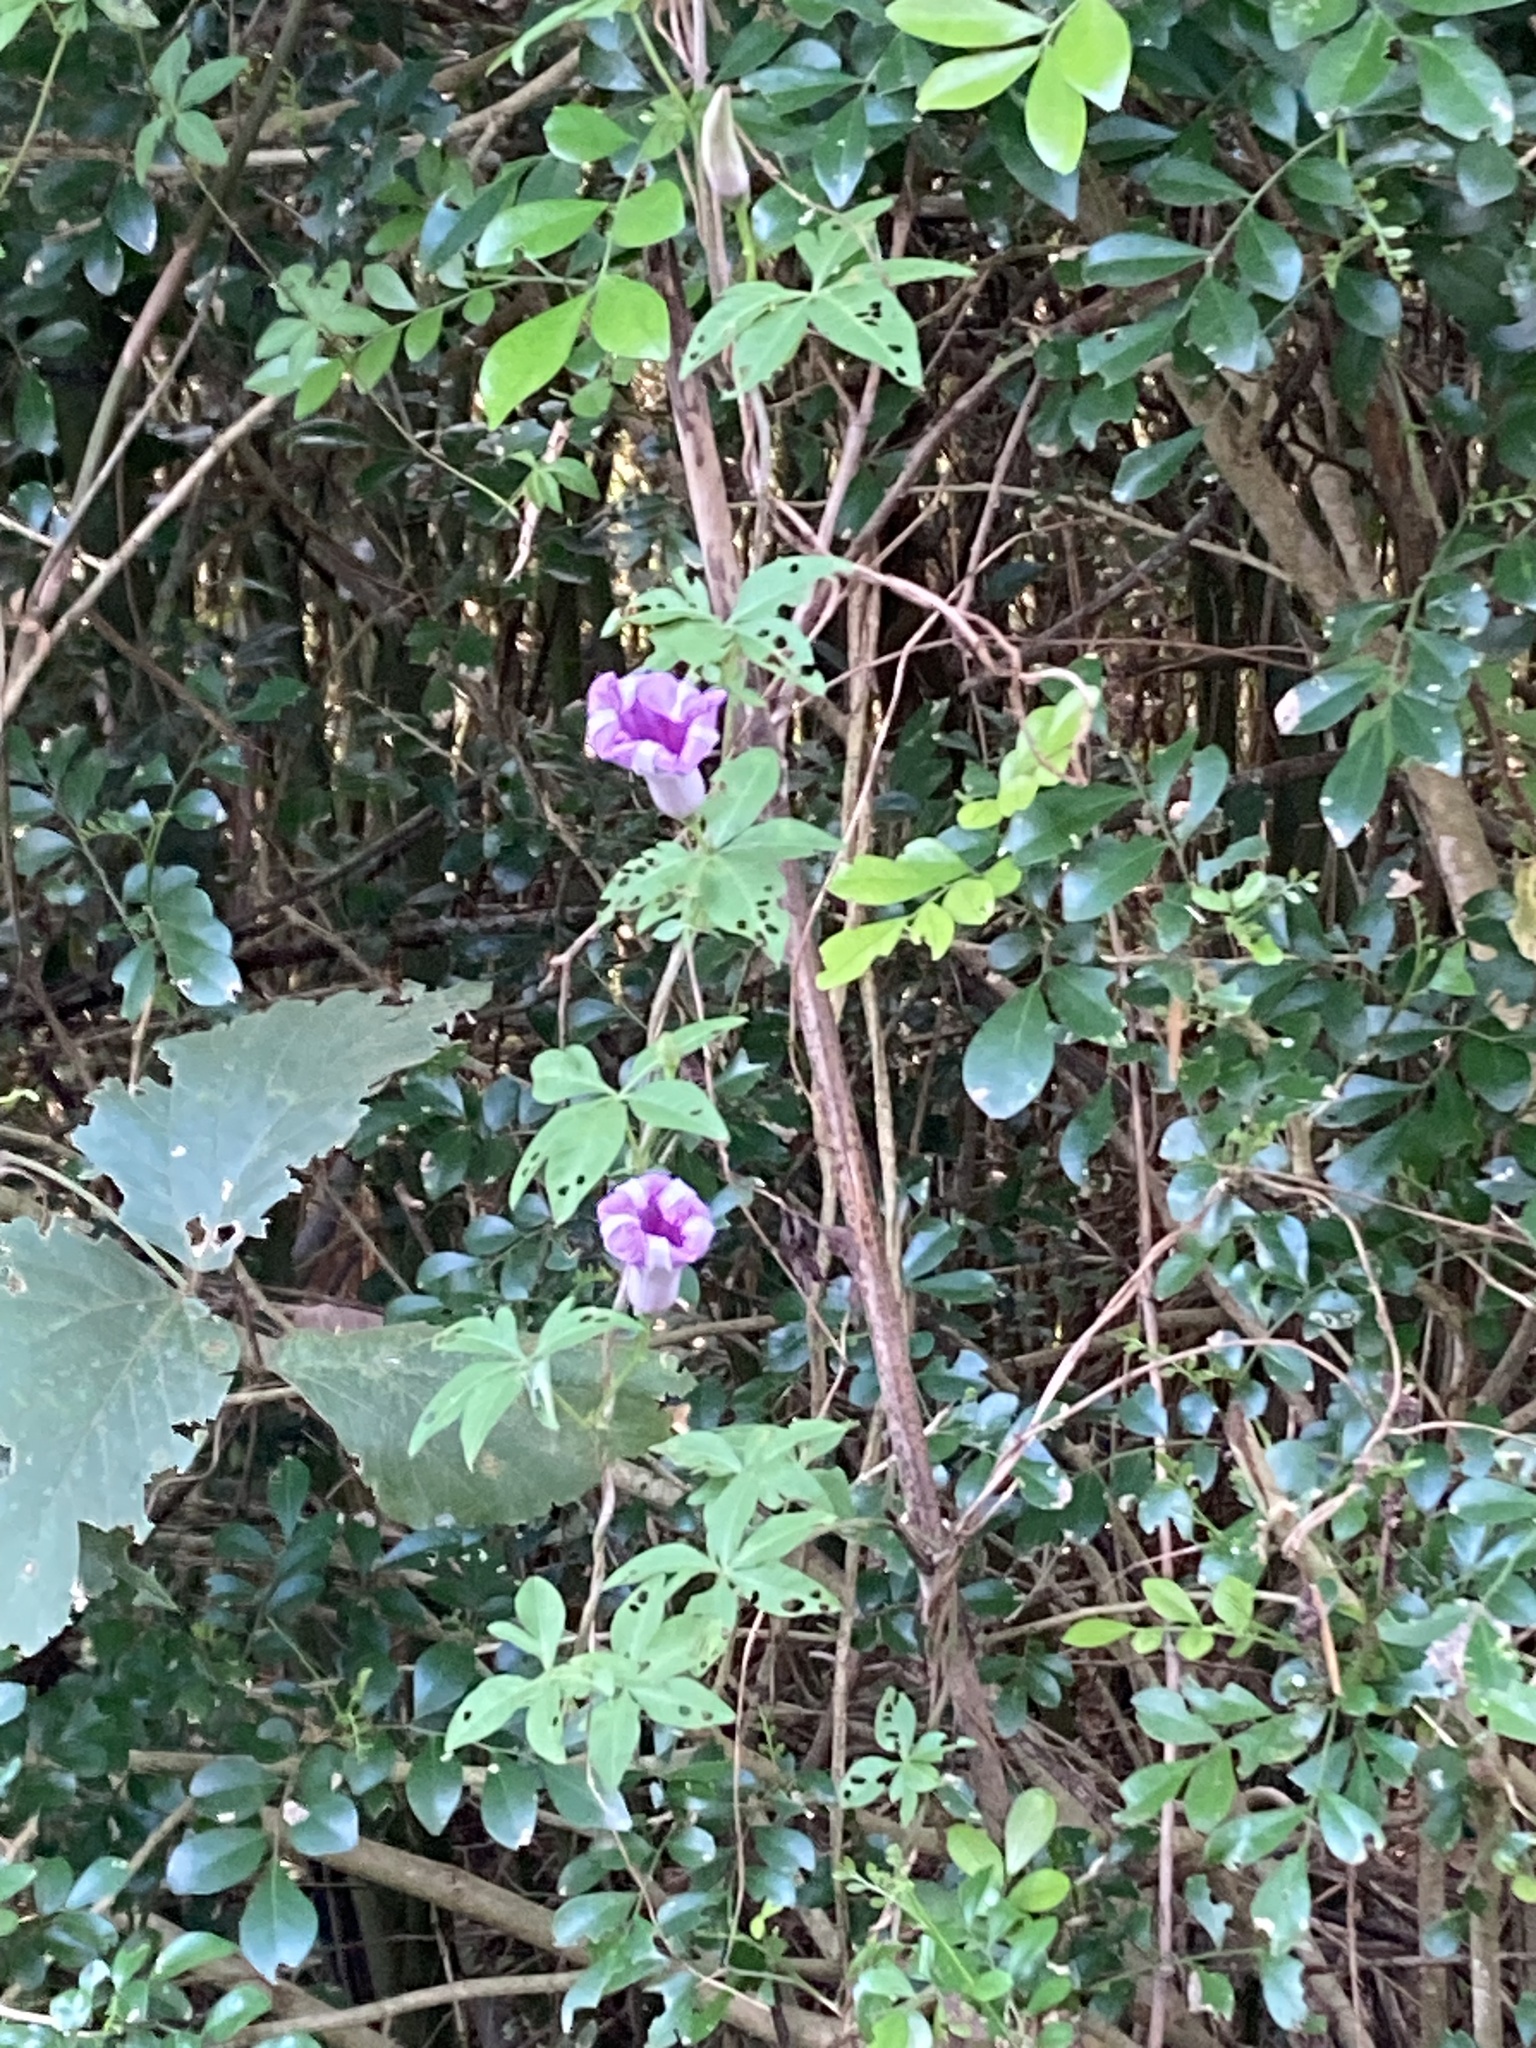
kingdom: Plantae
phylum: Tracheophyta
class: Magnoliopsida
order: Solanales
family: Convolvulaceae
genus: Ipomoea
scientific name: Ipomoea cairica
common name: Mile a minute vine
